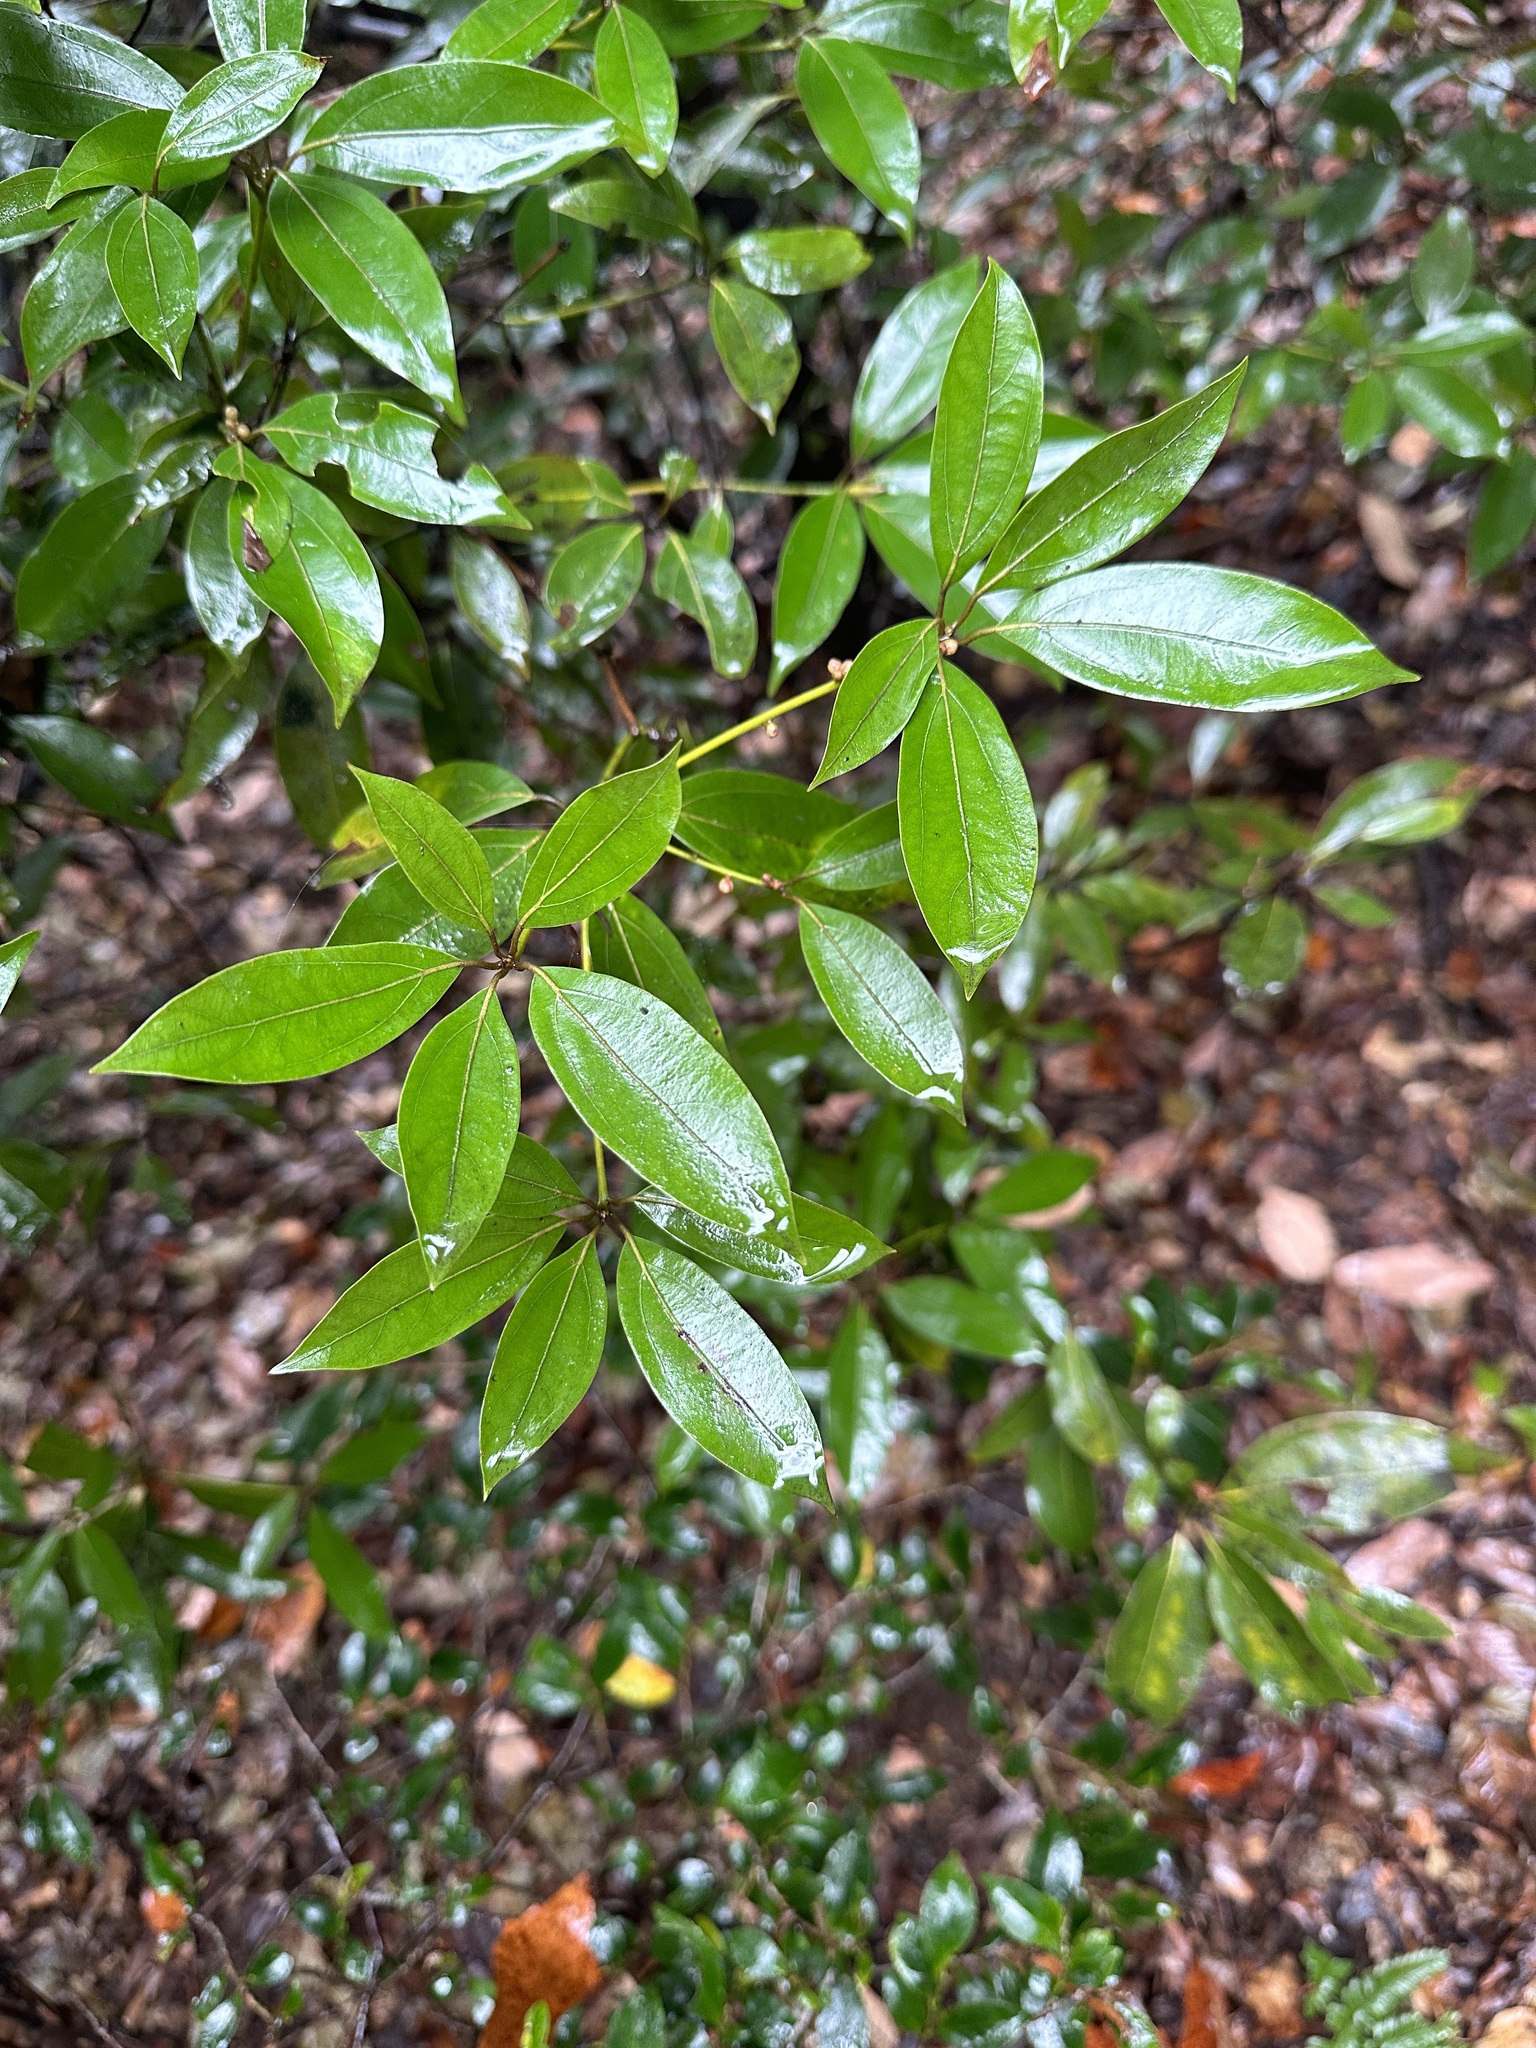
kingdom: Plantae
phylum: Tracheophyta
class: Magnoliopsida
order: Laurales
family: Lauraceae
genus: Neolitsea
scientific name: Neolitsea aciculata
